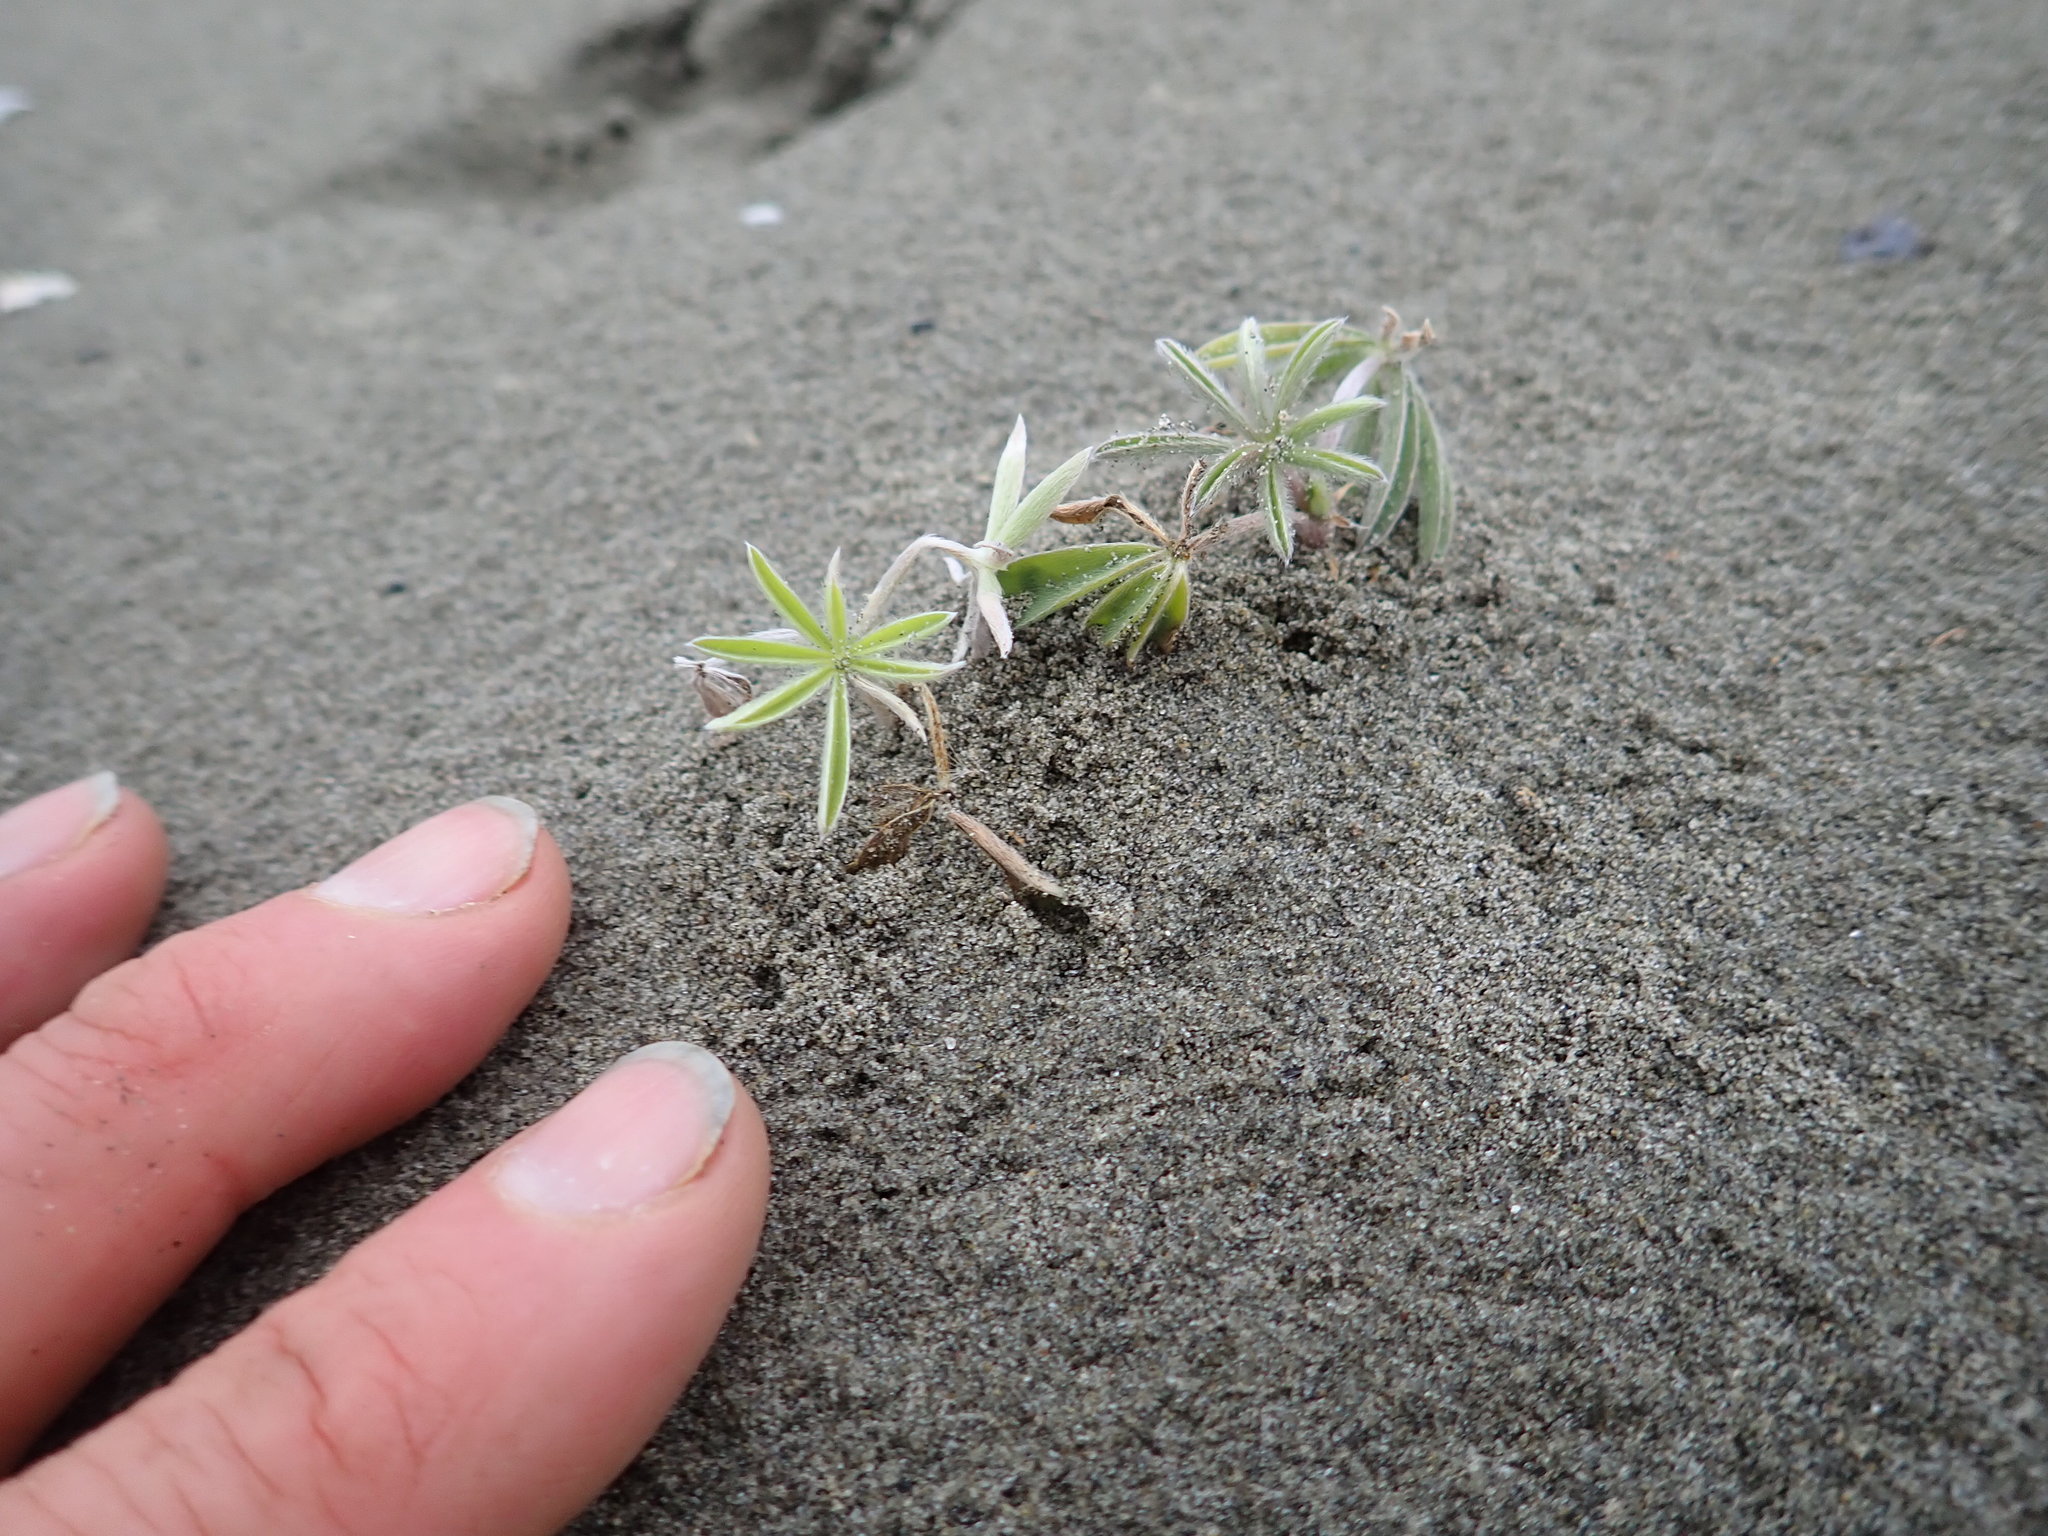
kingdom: Plantae
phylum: Tracheophyta
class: Magnoliopsida
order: Fabales
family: Fabaceae
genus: Lupinus
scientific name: Lupinus arboreus
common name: Yellow bush lupine
